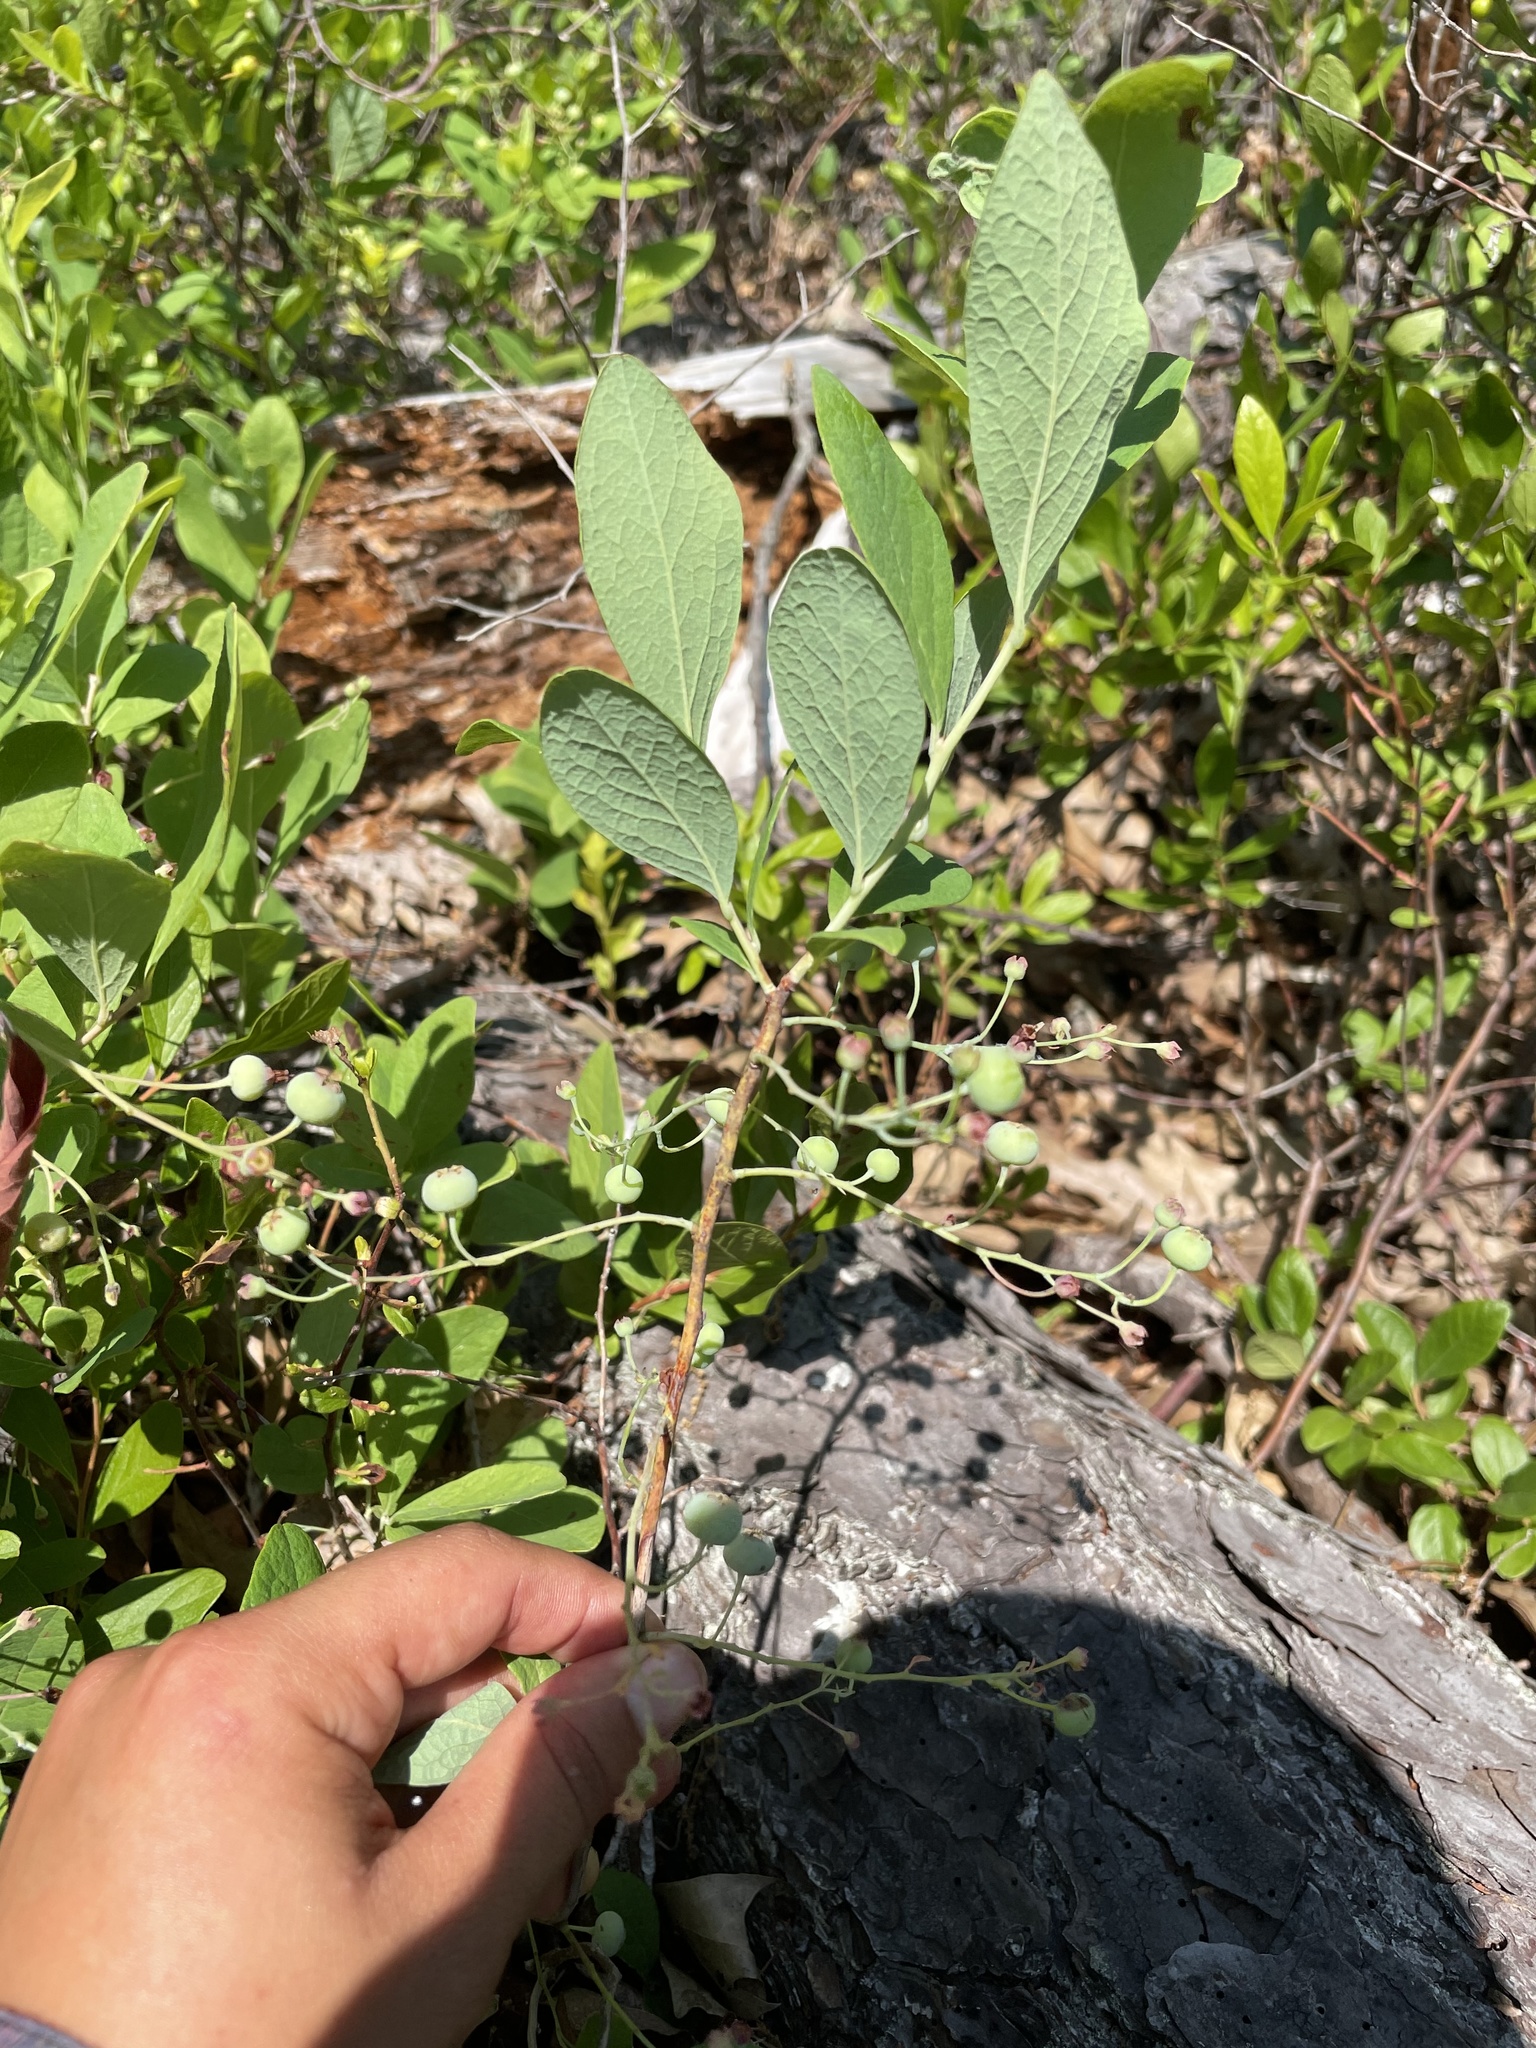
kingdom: Plantae
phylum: Tracheophyta
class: Magnoliopsida
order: Ericales
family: Ericaceae
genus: Gaylussacia
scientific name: Gaylussacia frondosa
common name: Dangleberry
